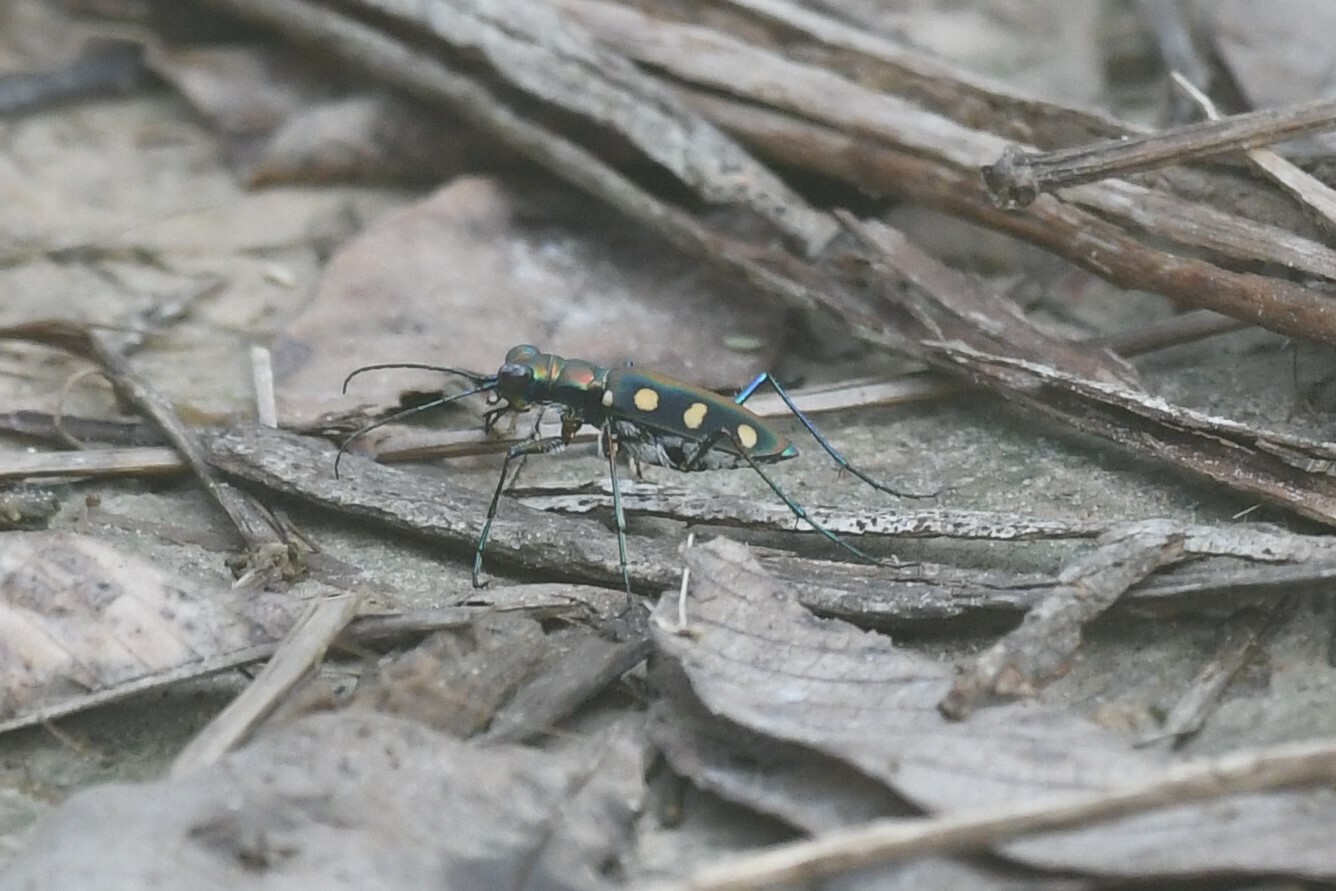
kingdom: Animalia
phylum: Arthropoda
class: Insecta
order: Coleoptera
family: Carabidae
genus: Cicindela
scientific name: Cicindela aurulenta
